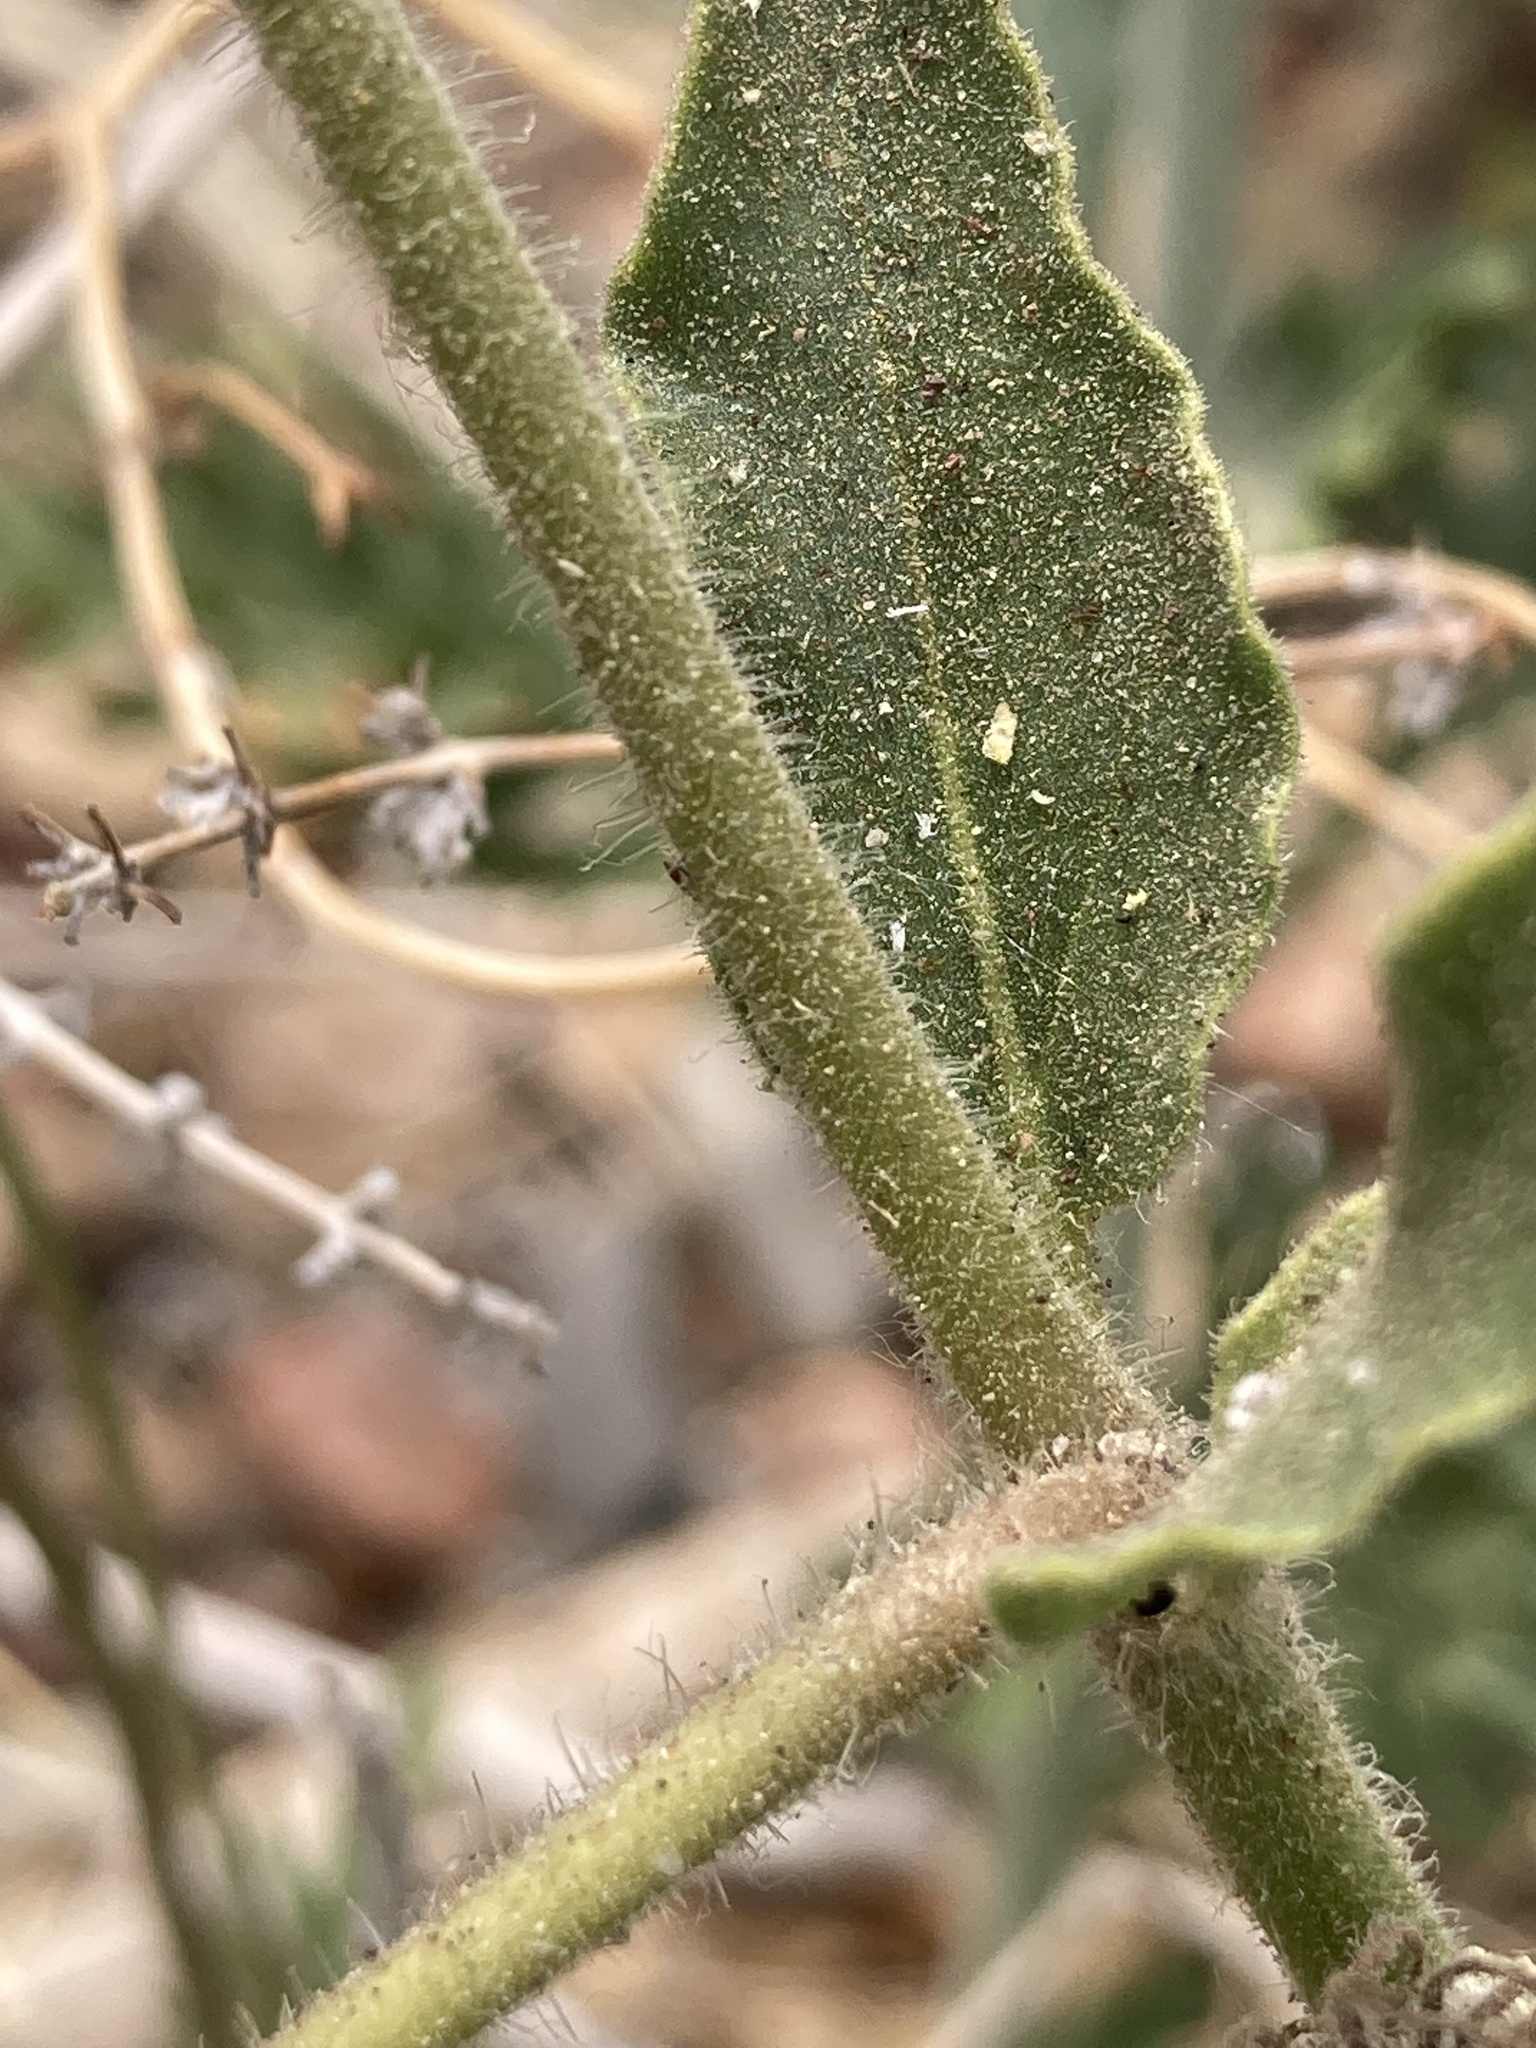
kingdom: Plantae
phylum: Tracheophyta
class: Magnoliopsida
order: Caryophyllales
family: Nyctaginaceae
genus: Abronia
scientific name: Abronia fragrans
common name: Fragrant sand-verbena
